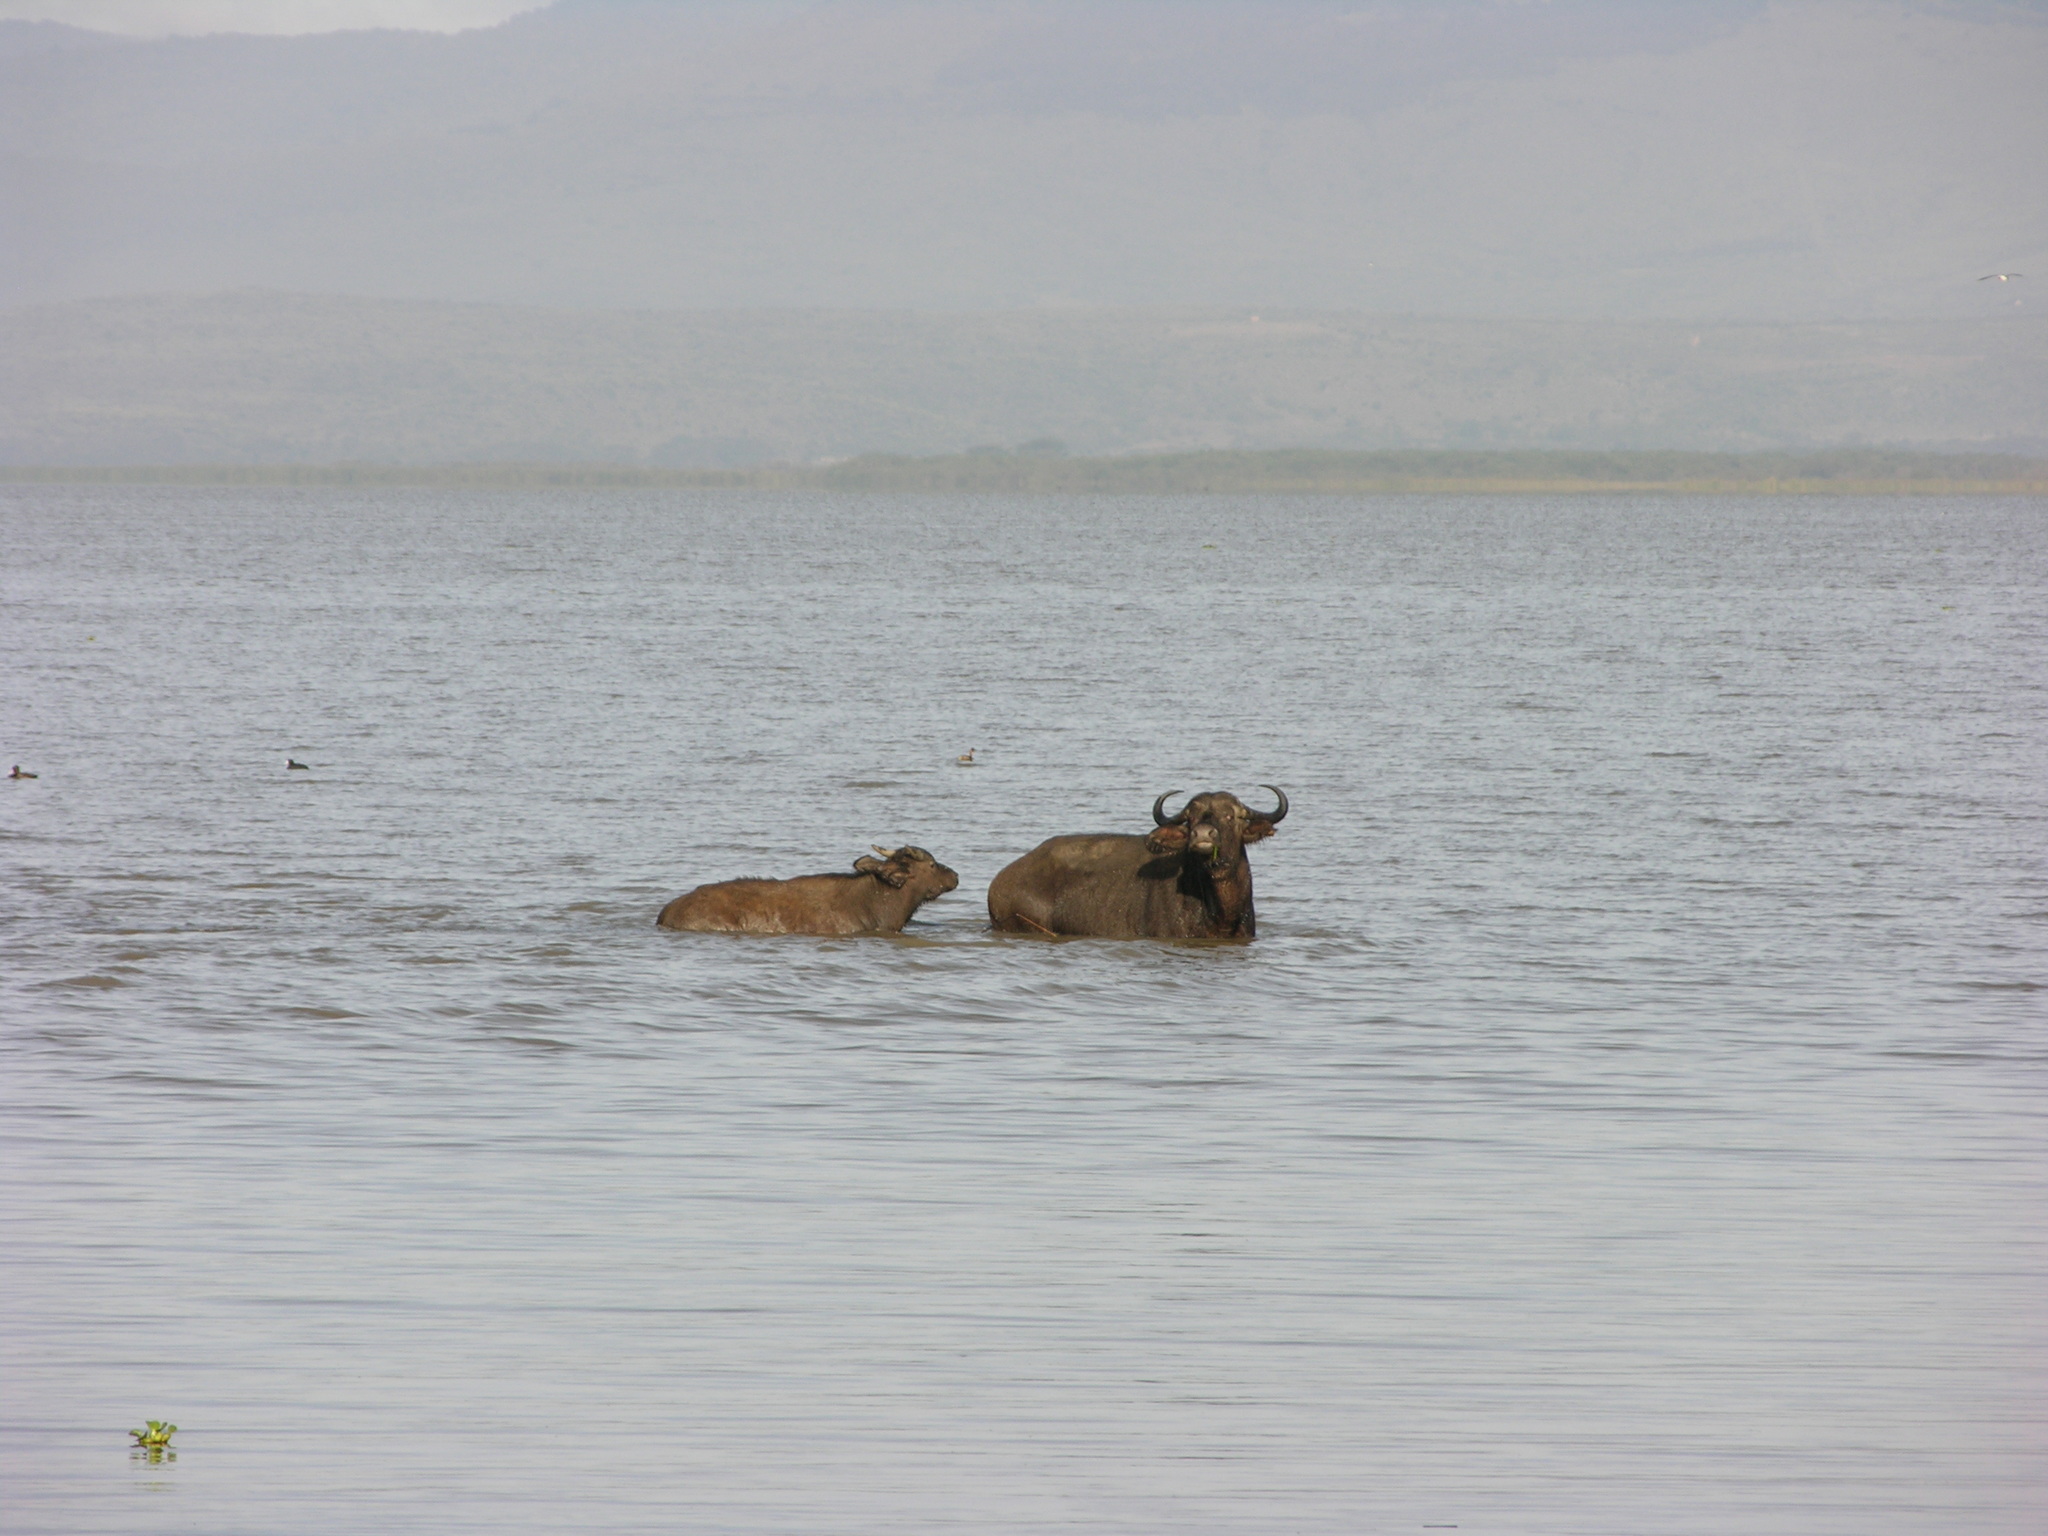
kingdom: Animalia
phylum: Chordata
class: Mammalia
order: Artiodactyla
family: Bovidae
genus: Syncerus
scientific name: Syncerus caffer
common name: African buffalo
